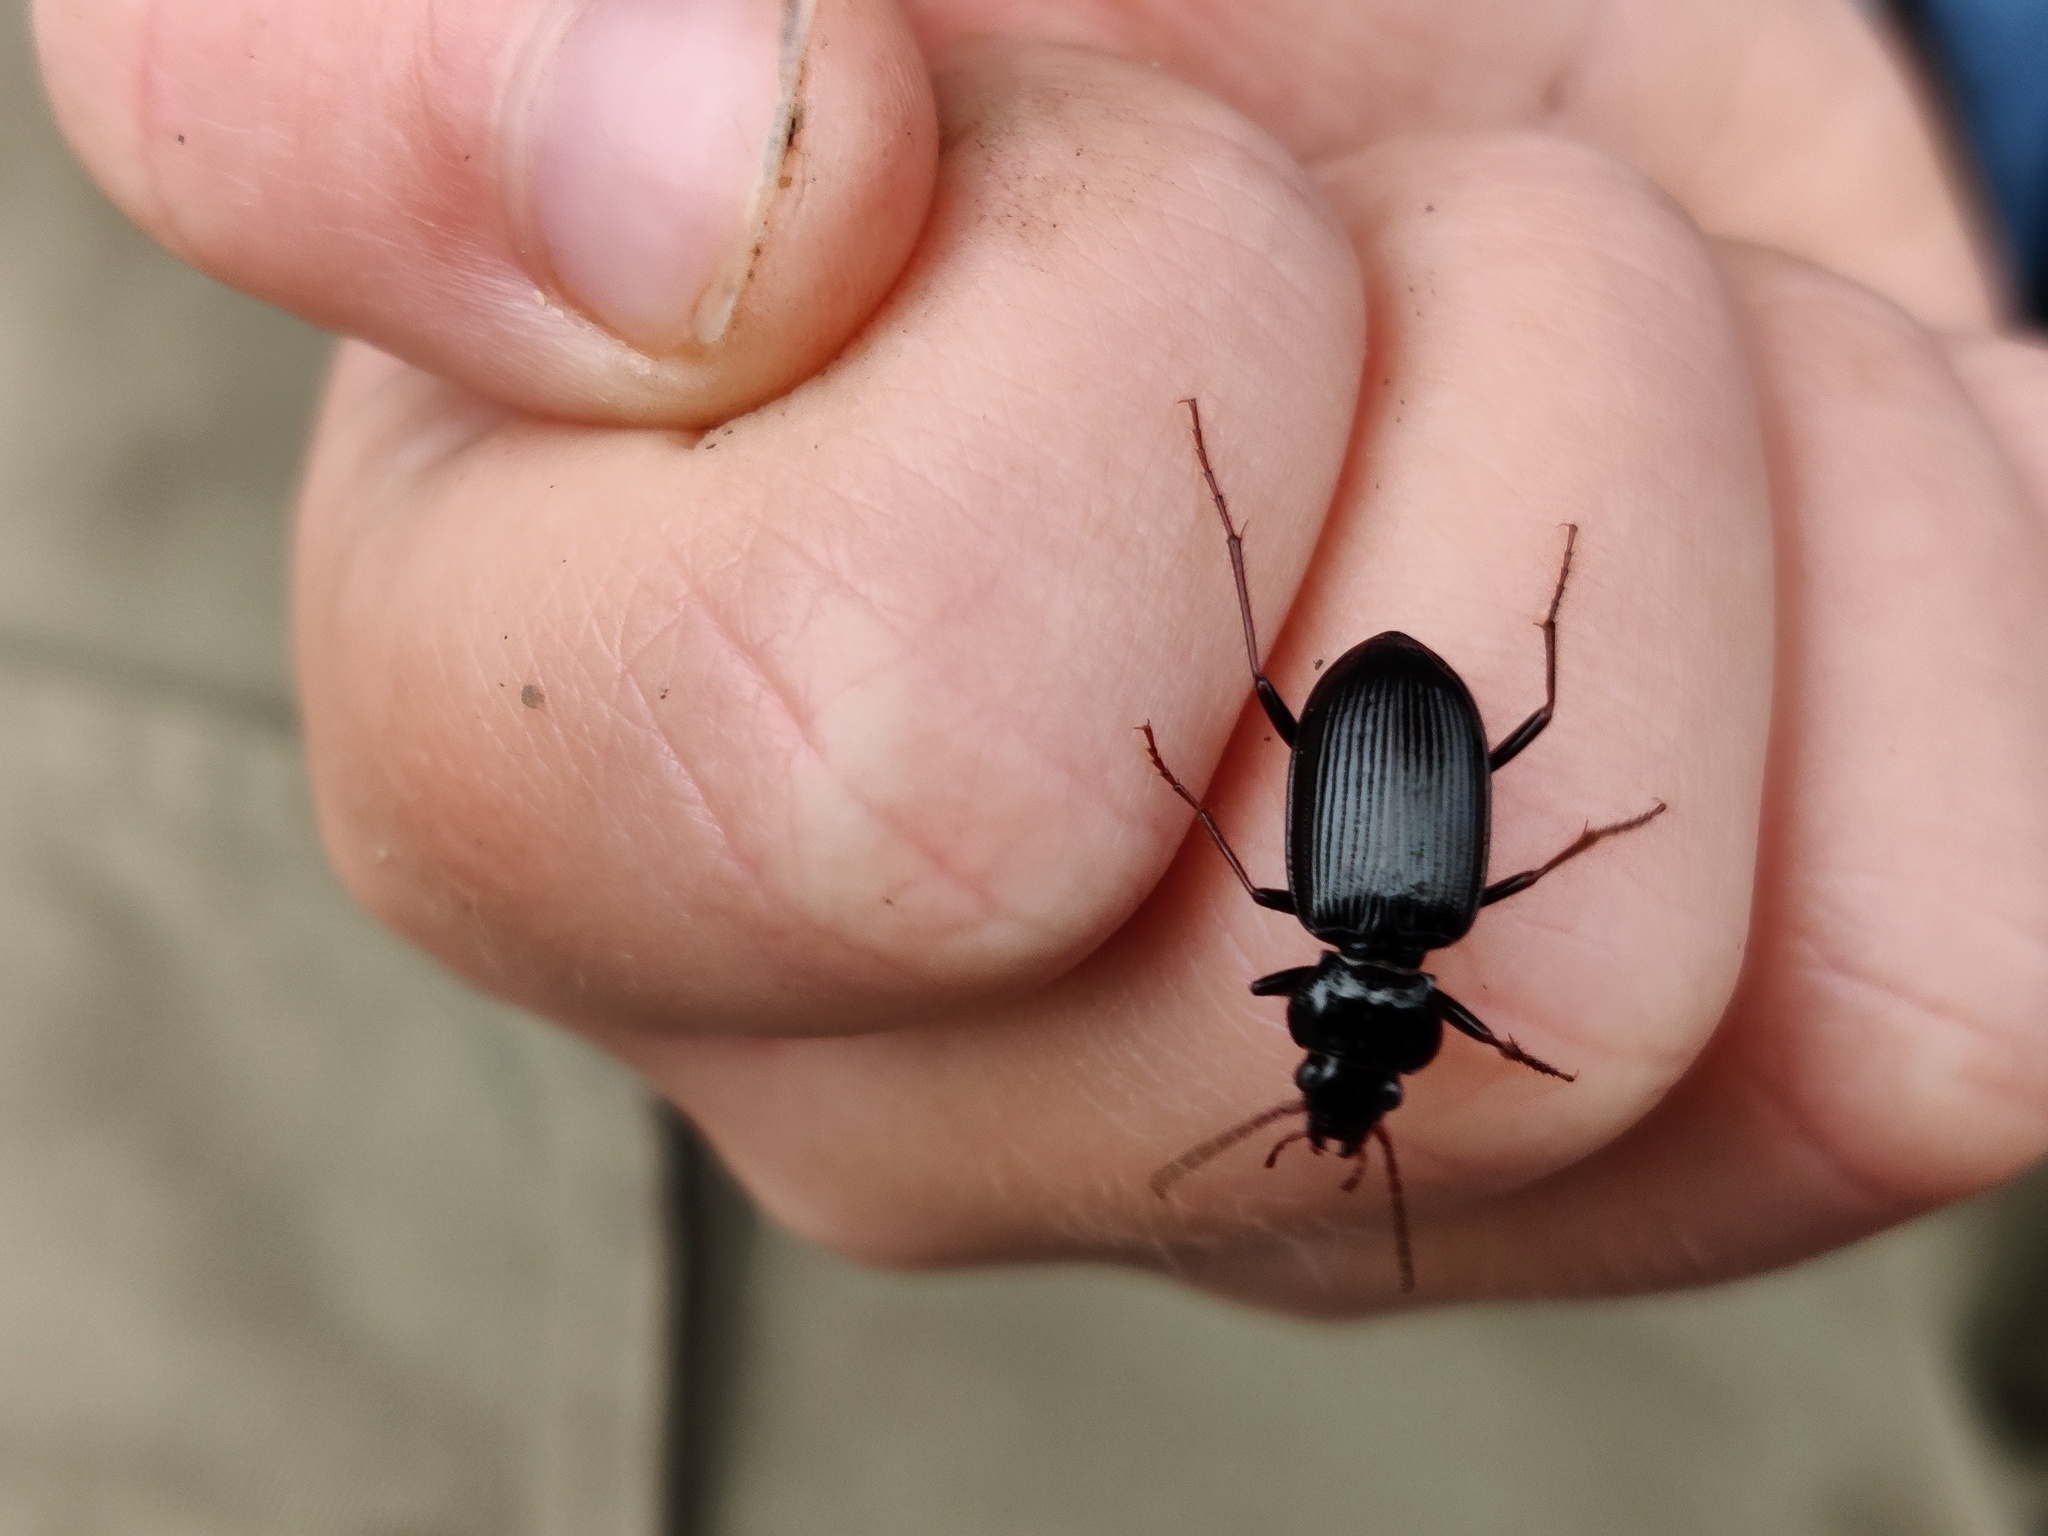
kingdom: Animalia
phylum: Arthropoda
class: Insecta
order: Coleoptera
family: Carabidae
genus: Nebria
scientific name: Nebria brevicollis
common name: Short-necked gazelle beetle
